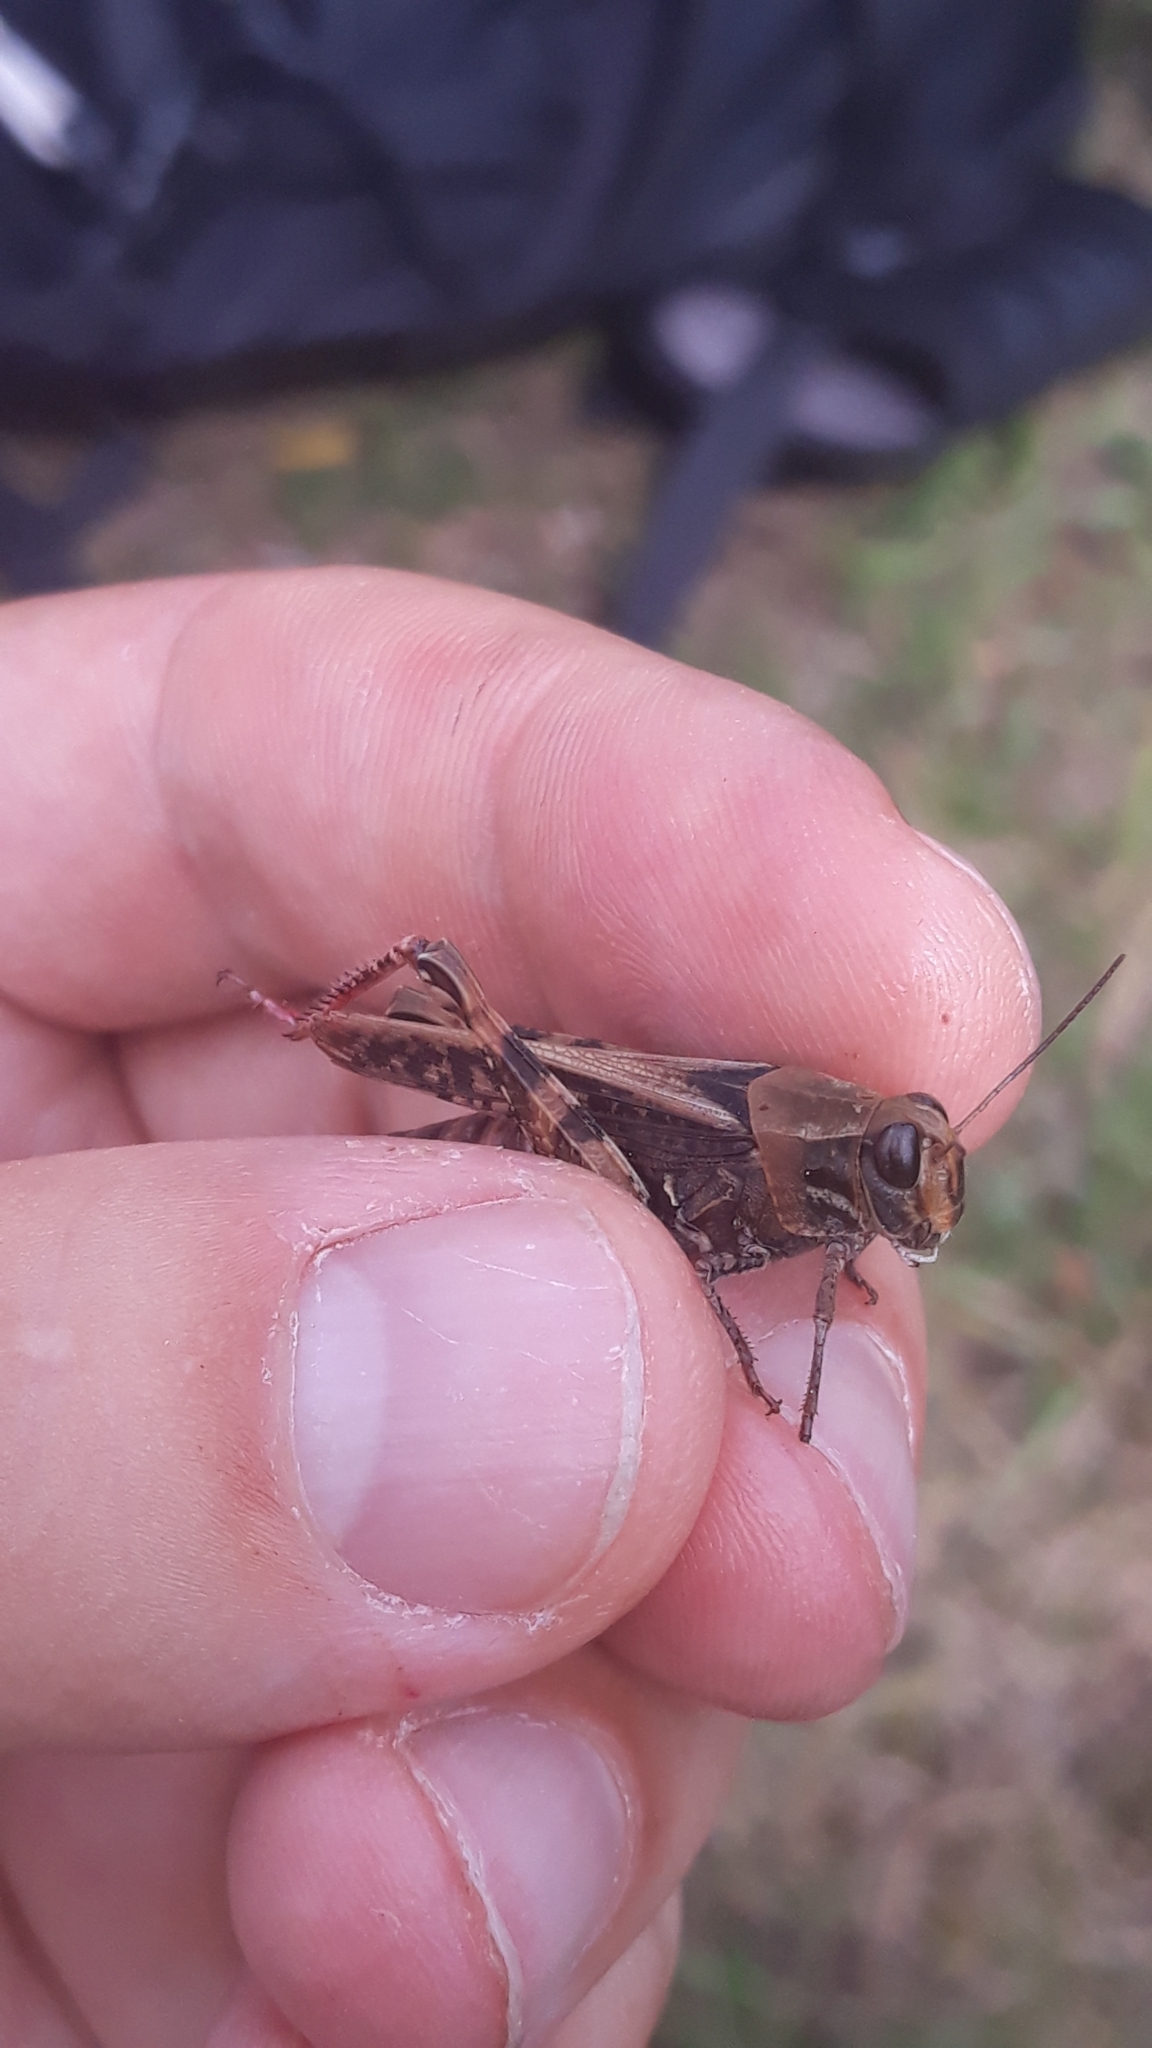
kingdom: Animalia
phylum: Arthropoda
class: Insecta
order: Orthoptera
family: Acrididae
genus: Calliptamus
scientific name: Calliptamus italicus
